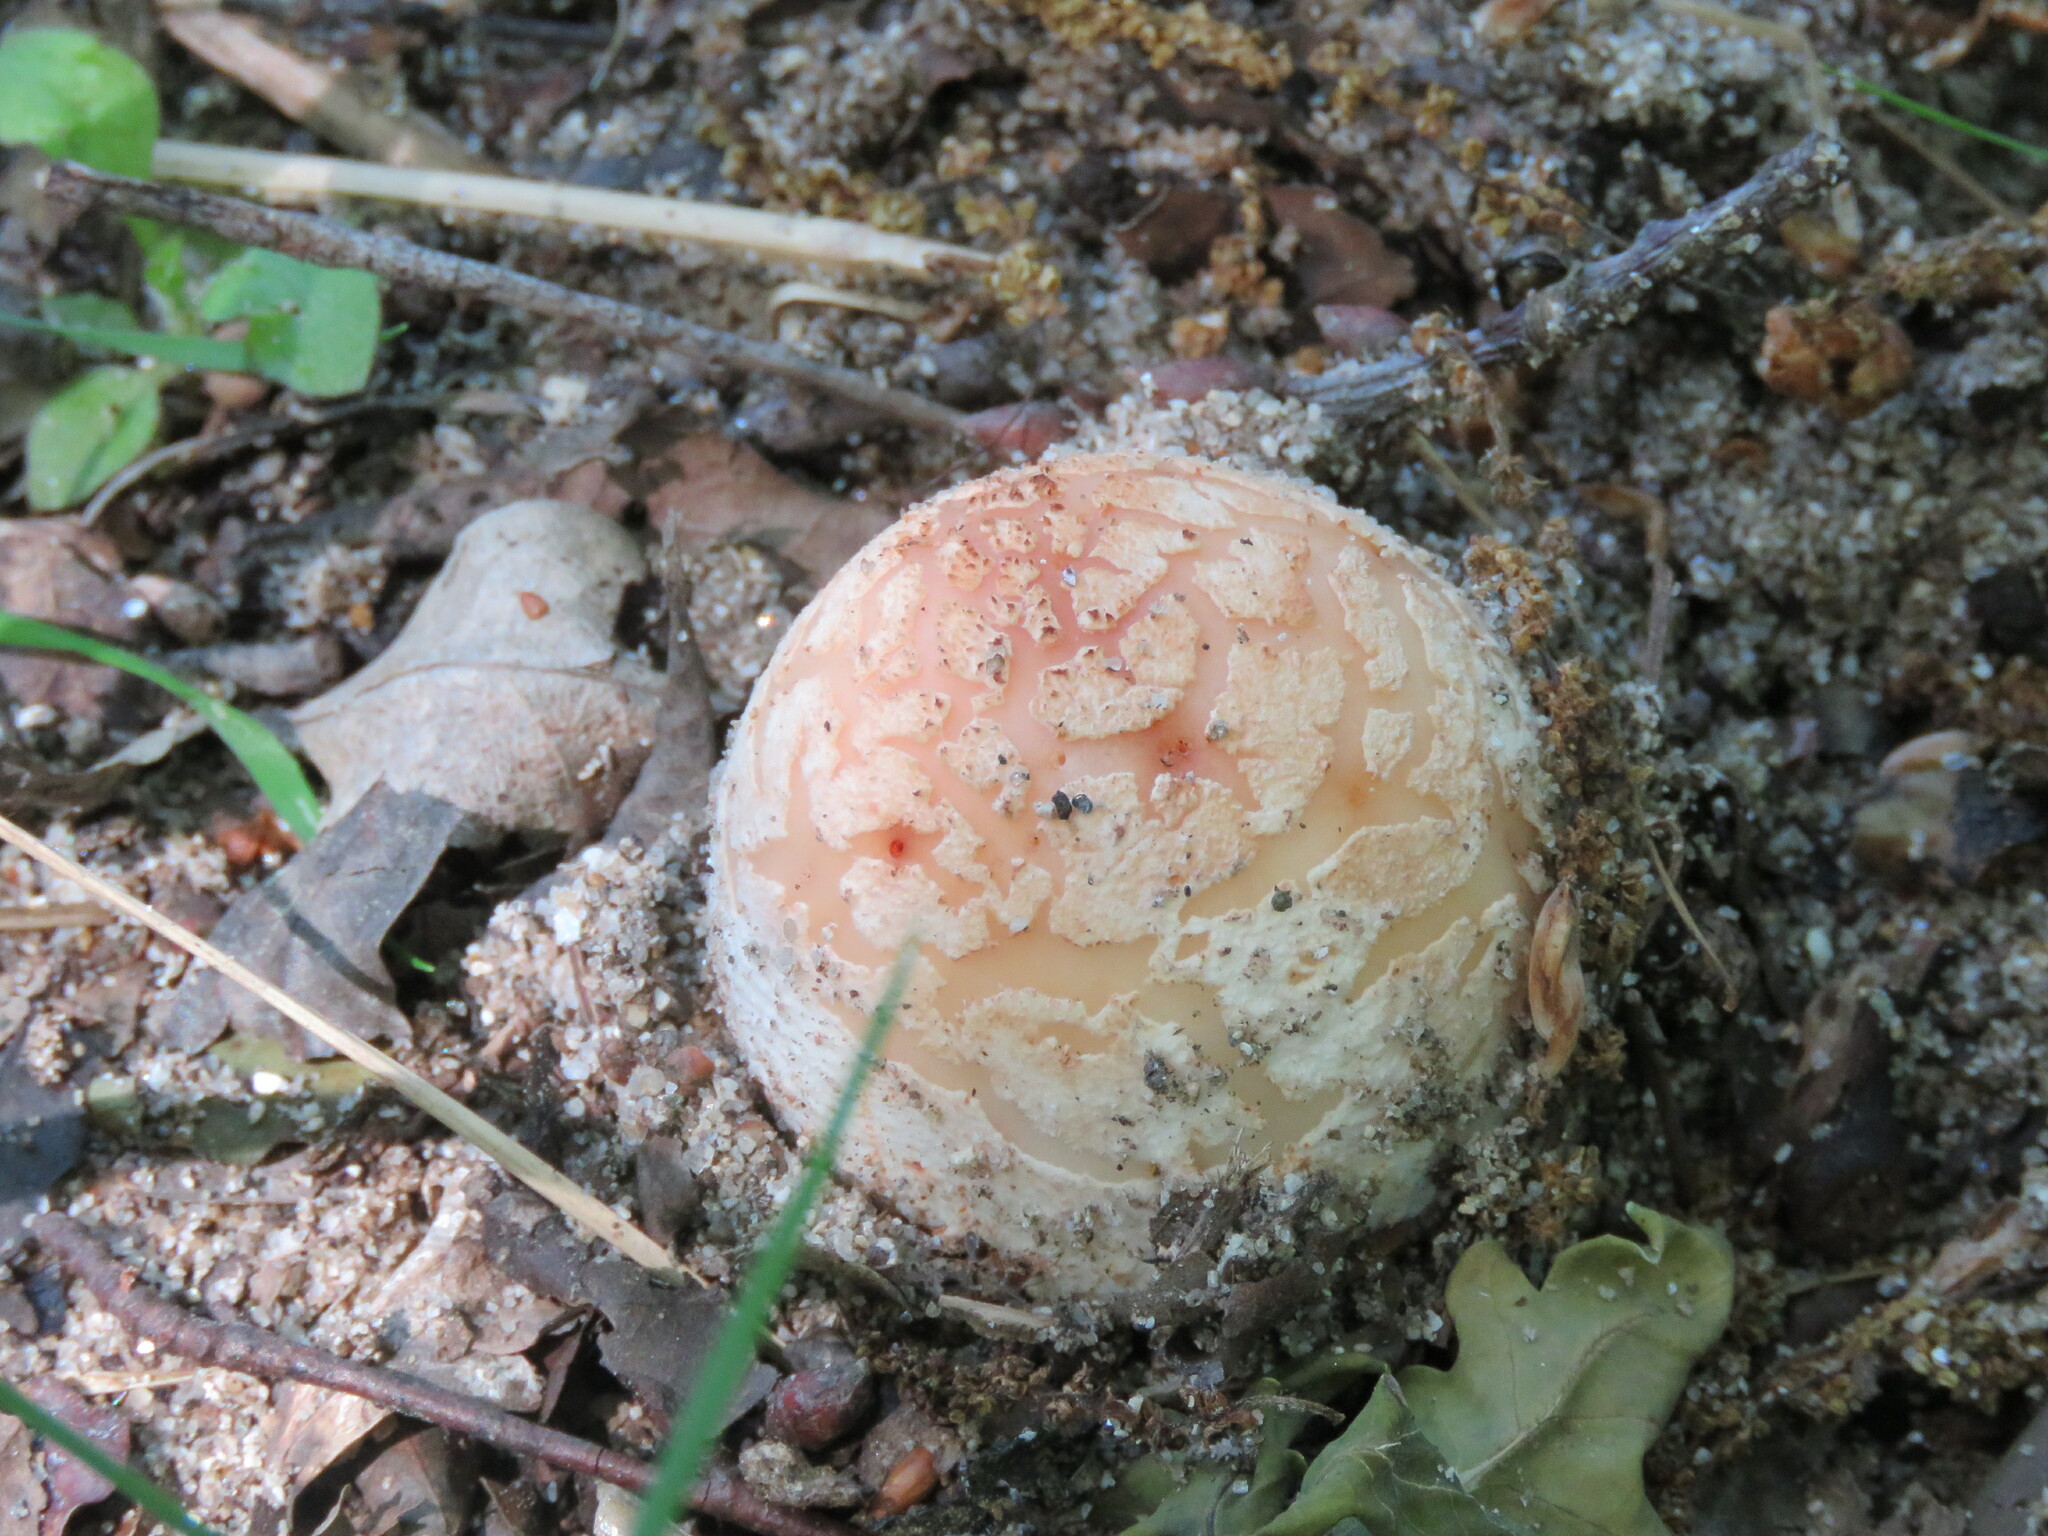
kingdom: Fungi
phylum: Basidiomycota
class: Agaricomycetes
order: Agaricales
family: Amanitaceae
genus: Amanita
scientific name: Amanita rubescens
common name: Blusher
